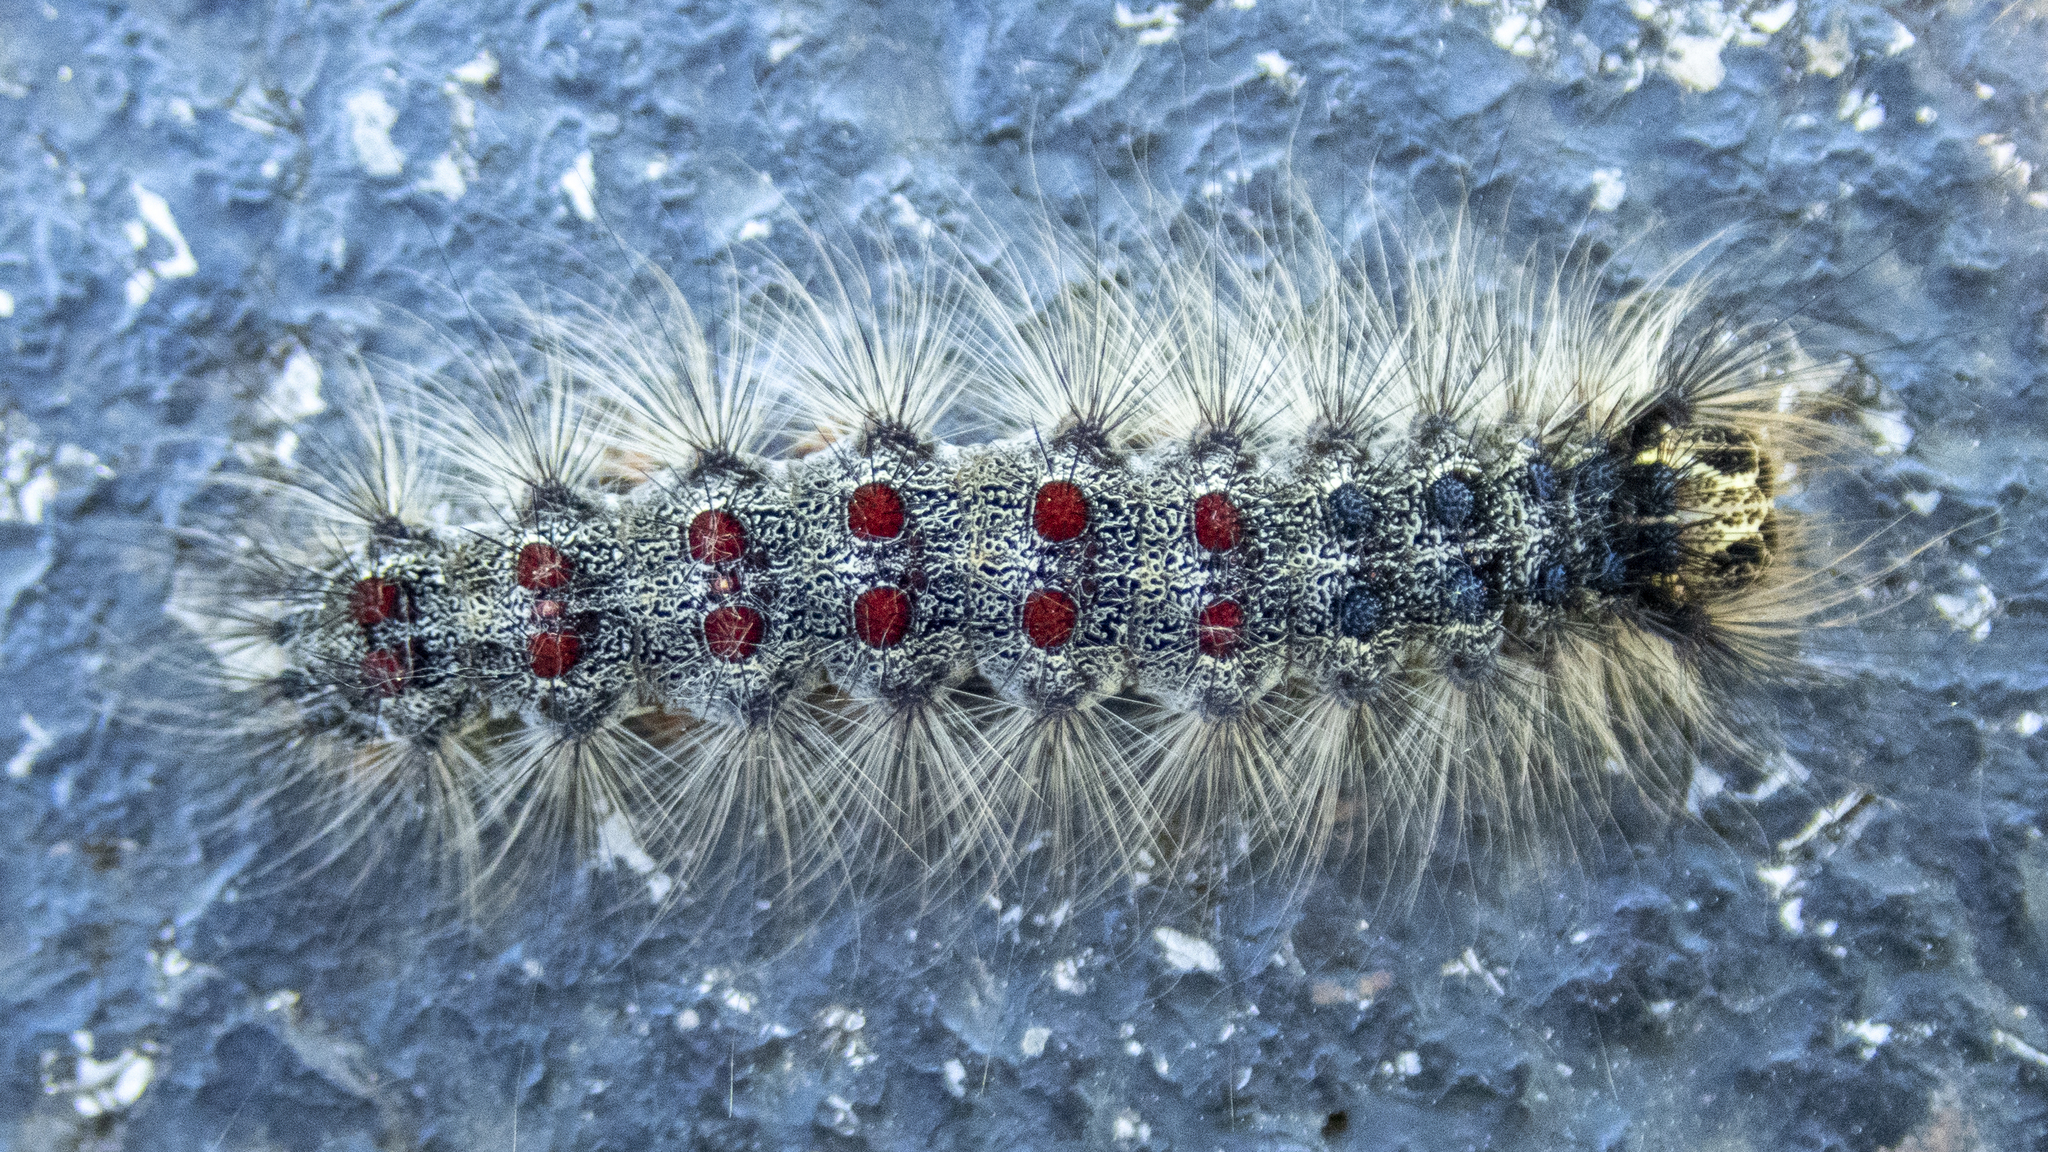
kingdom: Animalia
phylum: Arthropoda
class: Insecta
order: Lepidoptera
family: Erebidae
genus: Lymantria
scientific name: Lymantria dispar
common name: Gypsy moth
